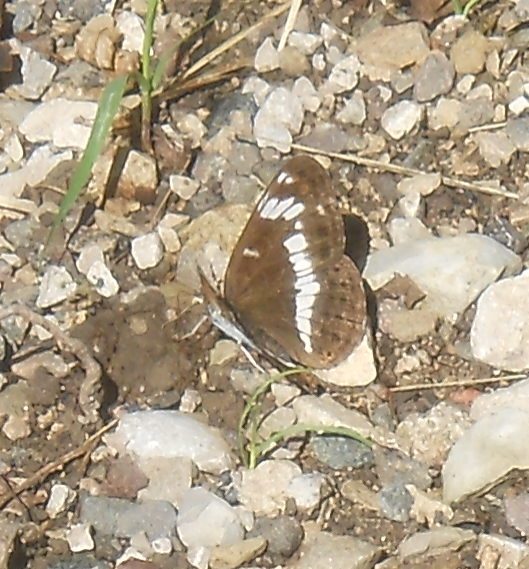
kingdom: Animalia
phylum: Arthropoda
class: Insecta
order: Lepidoptera
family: Nymphalidae
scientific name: Nymphalidae
